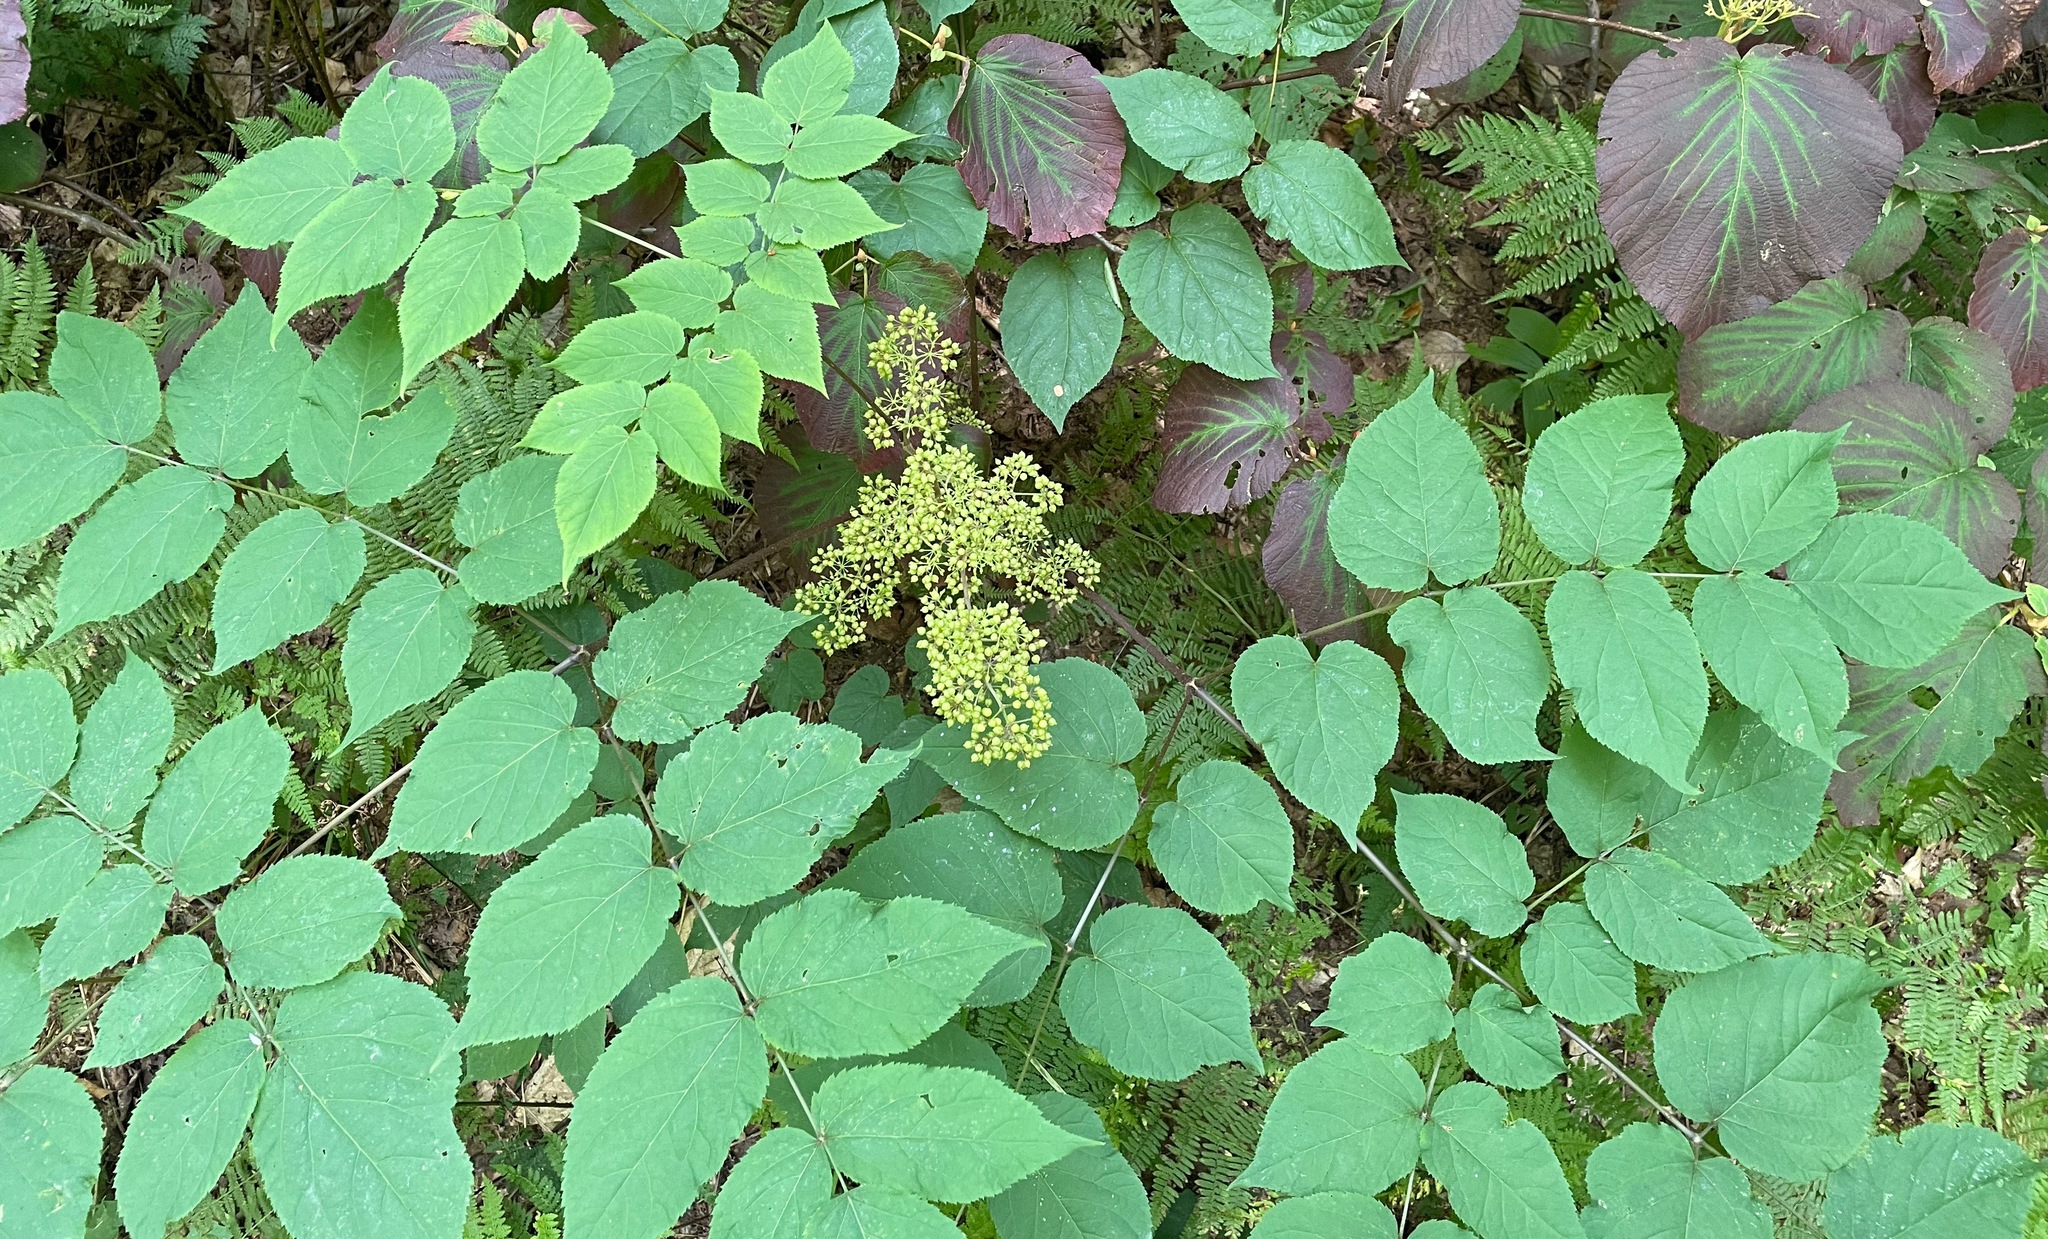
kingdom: Plantae
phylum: Tracheophyta
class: Magnoliopsida
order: Apiales
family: Araliaceae
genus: Aralia
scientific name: Aralia racemosa
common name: American-spikenard
